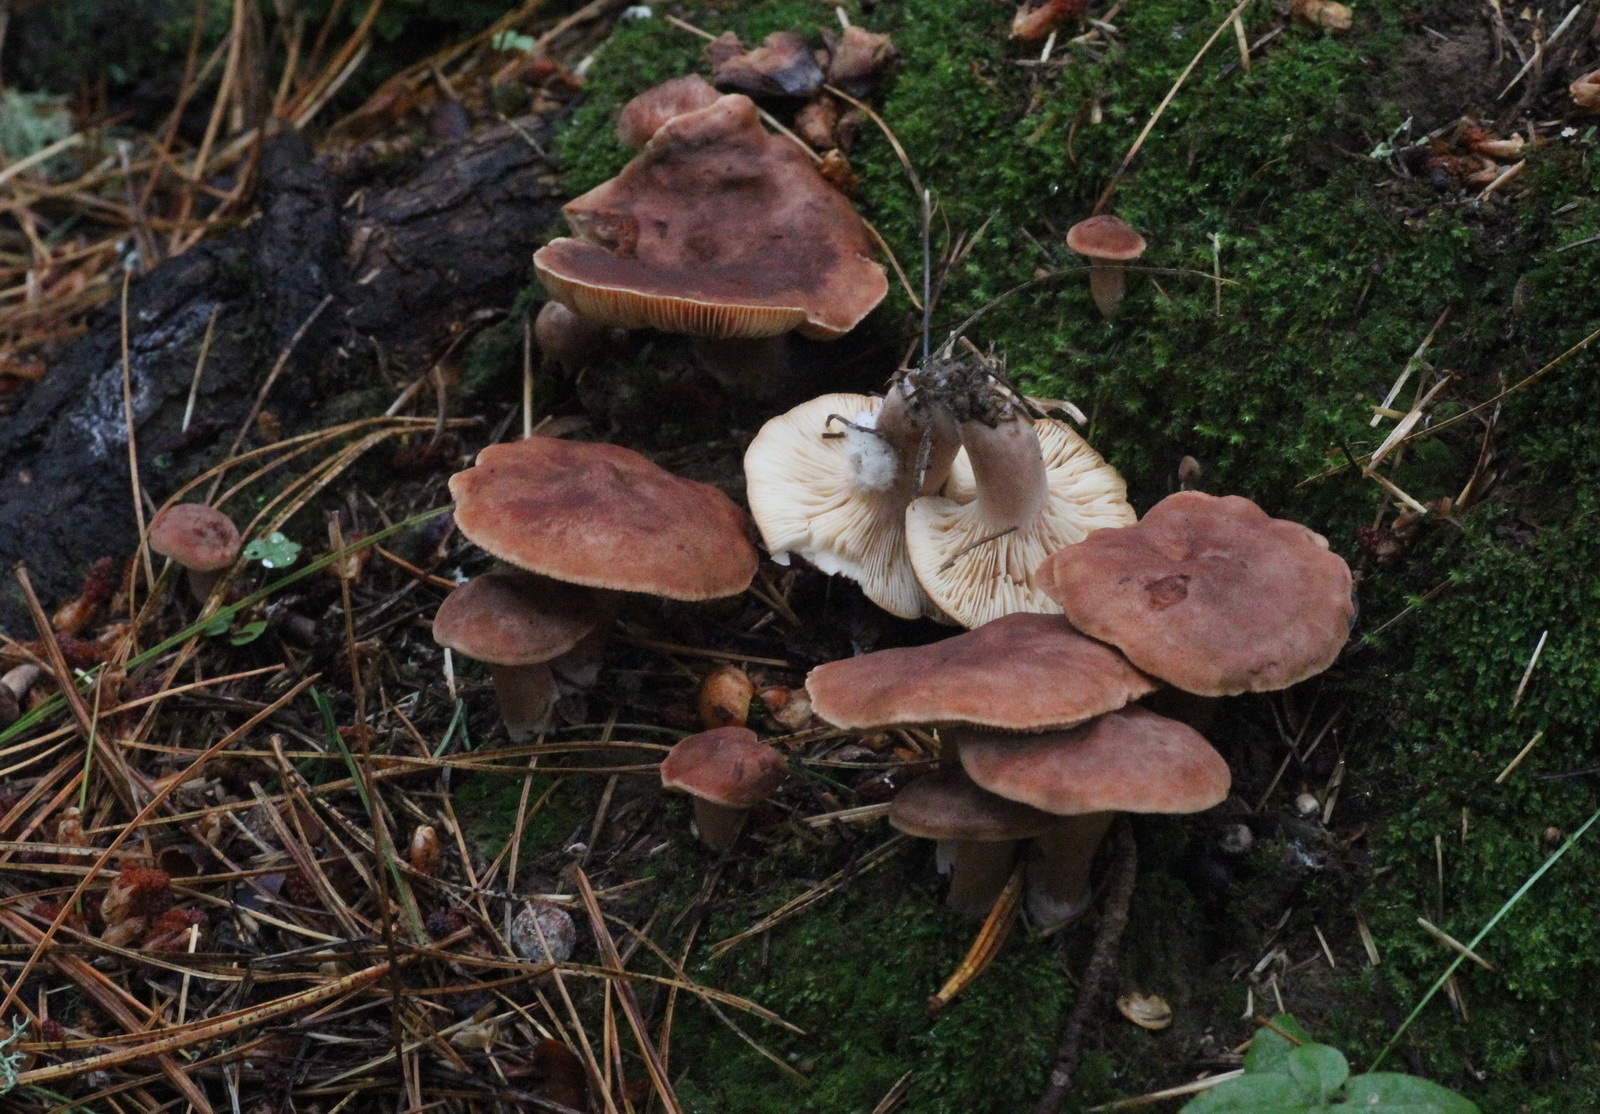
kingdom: Fungi
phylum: Basidiomycota
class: Agaricomycetes
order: Russulales
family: Russulaceae
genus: Lactarius
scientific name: Lactarius rufus
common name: Rufous milk-cap
